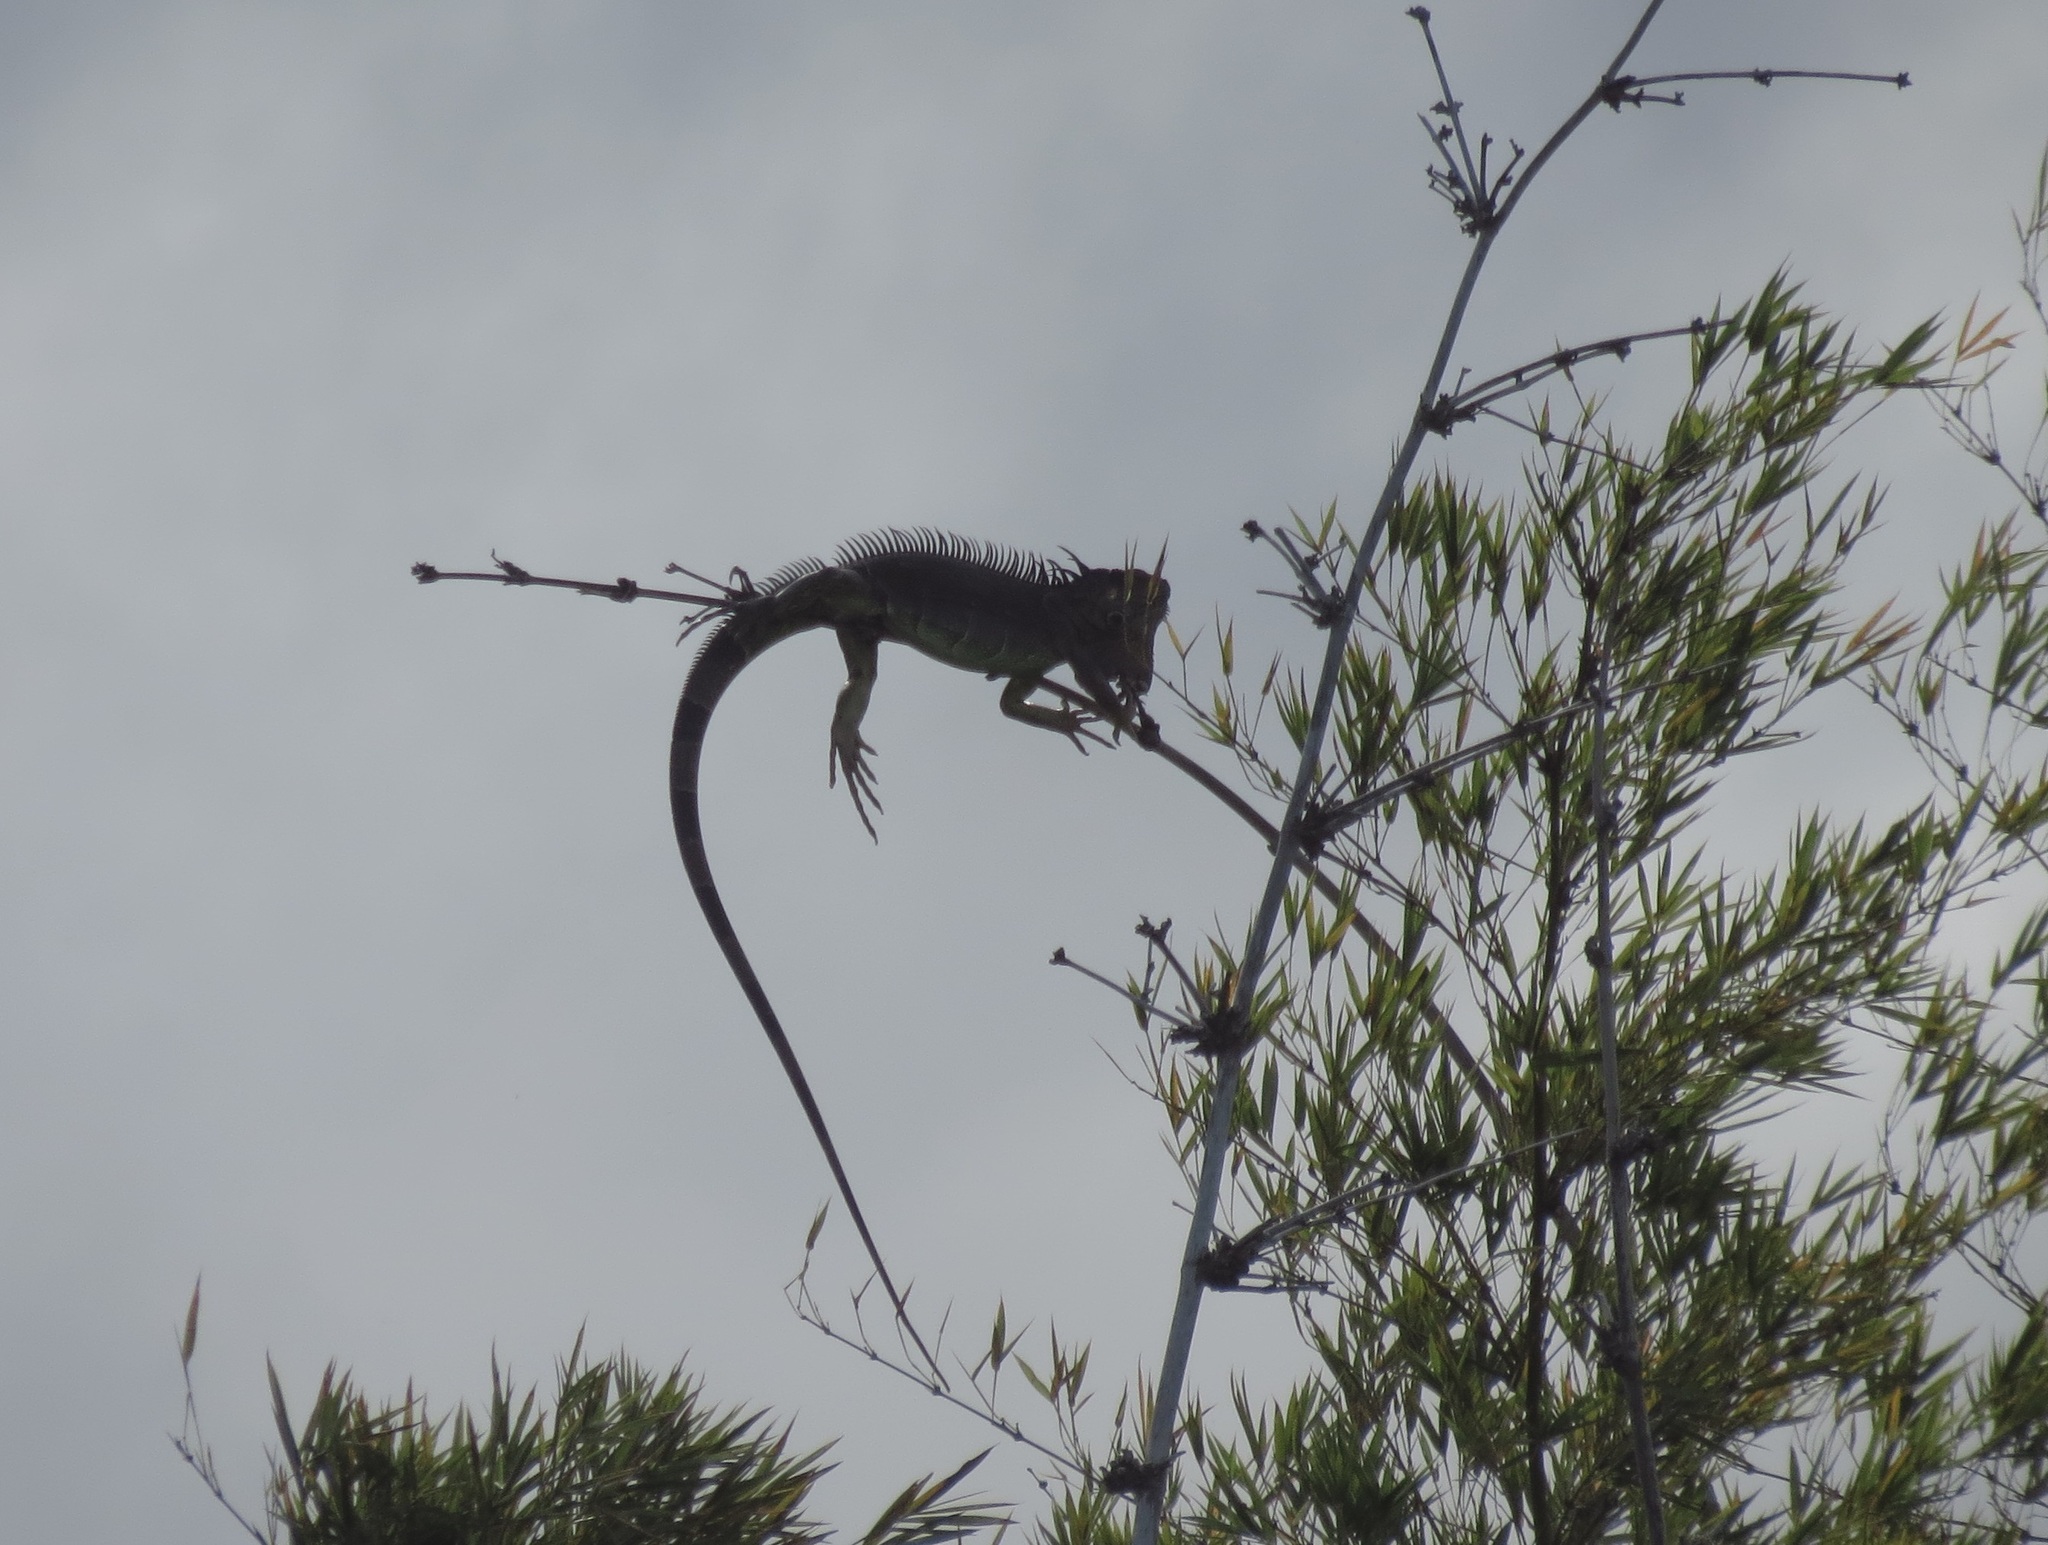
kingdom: Animalia
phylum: Chordata
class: Squamata
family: Iguanidae
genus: Iguana
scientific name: Iguana iguana
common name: Green iguana
